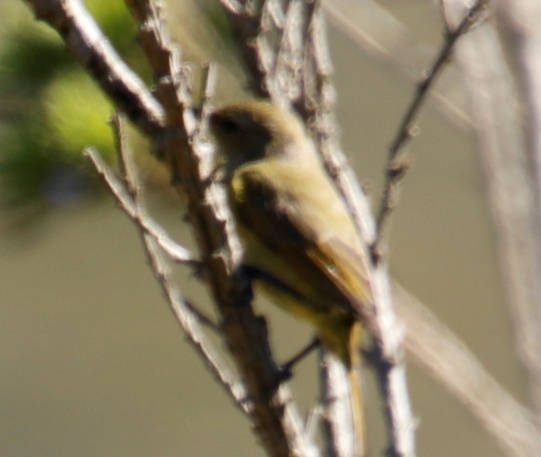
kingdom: Animalia
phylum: Chordata
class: Aves
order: Passeriformes
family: Nectariniidae
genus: Anthobaphes
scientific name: Anthobaphes violacea
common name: Orange-breasted sunbird
